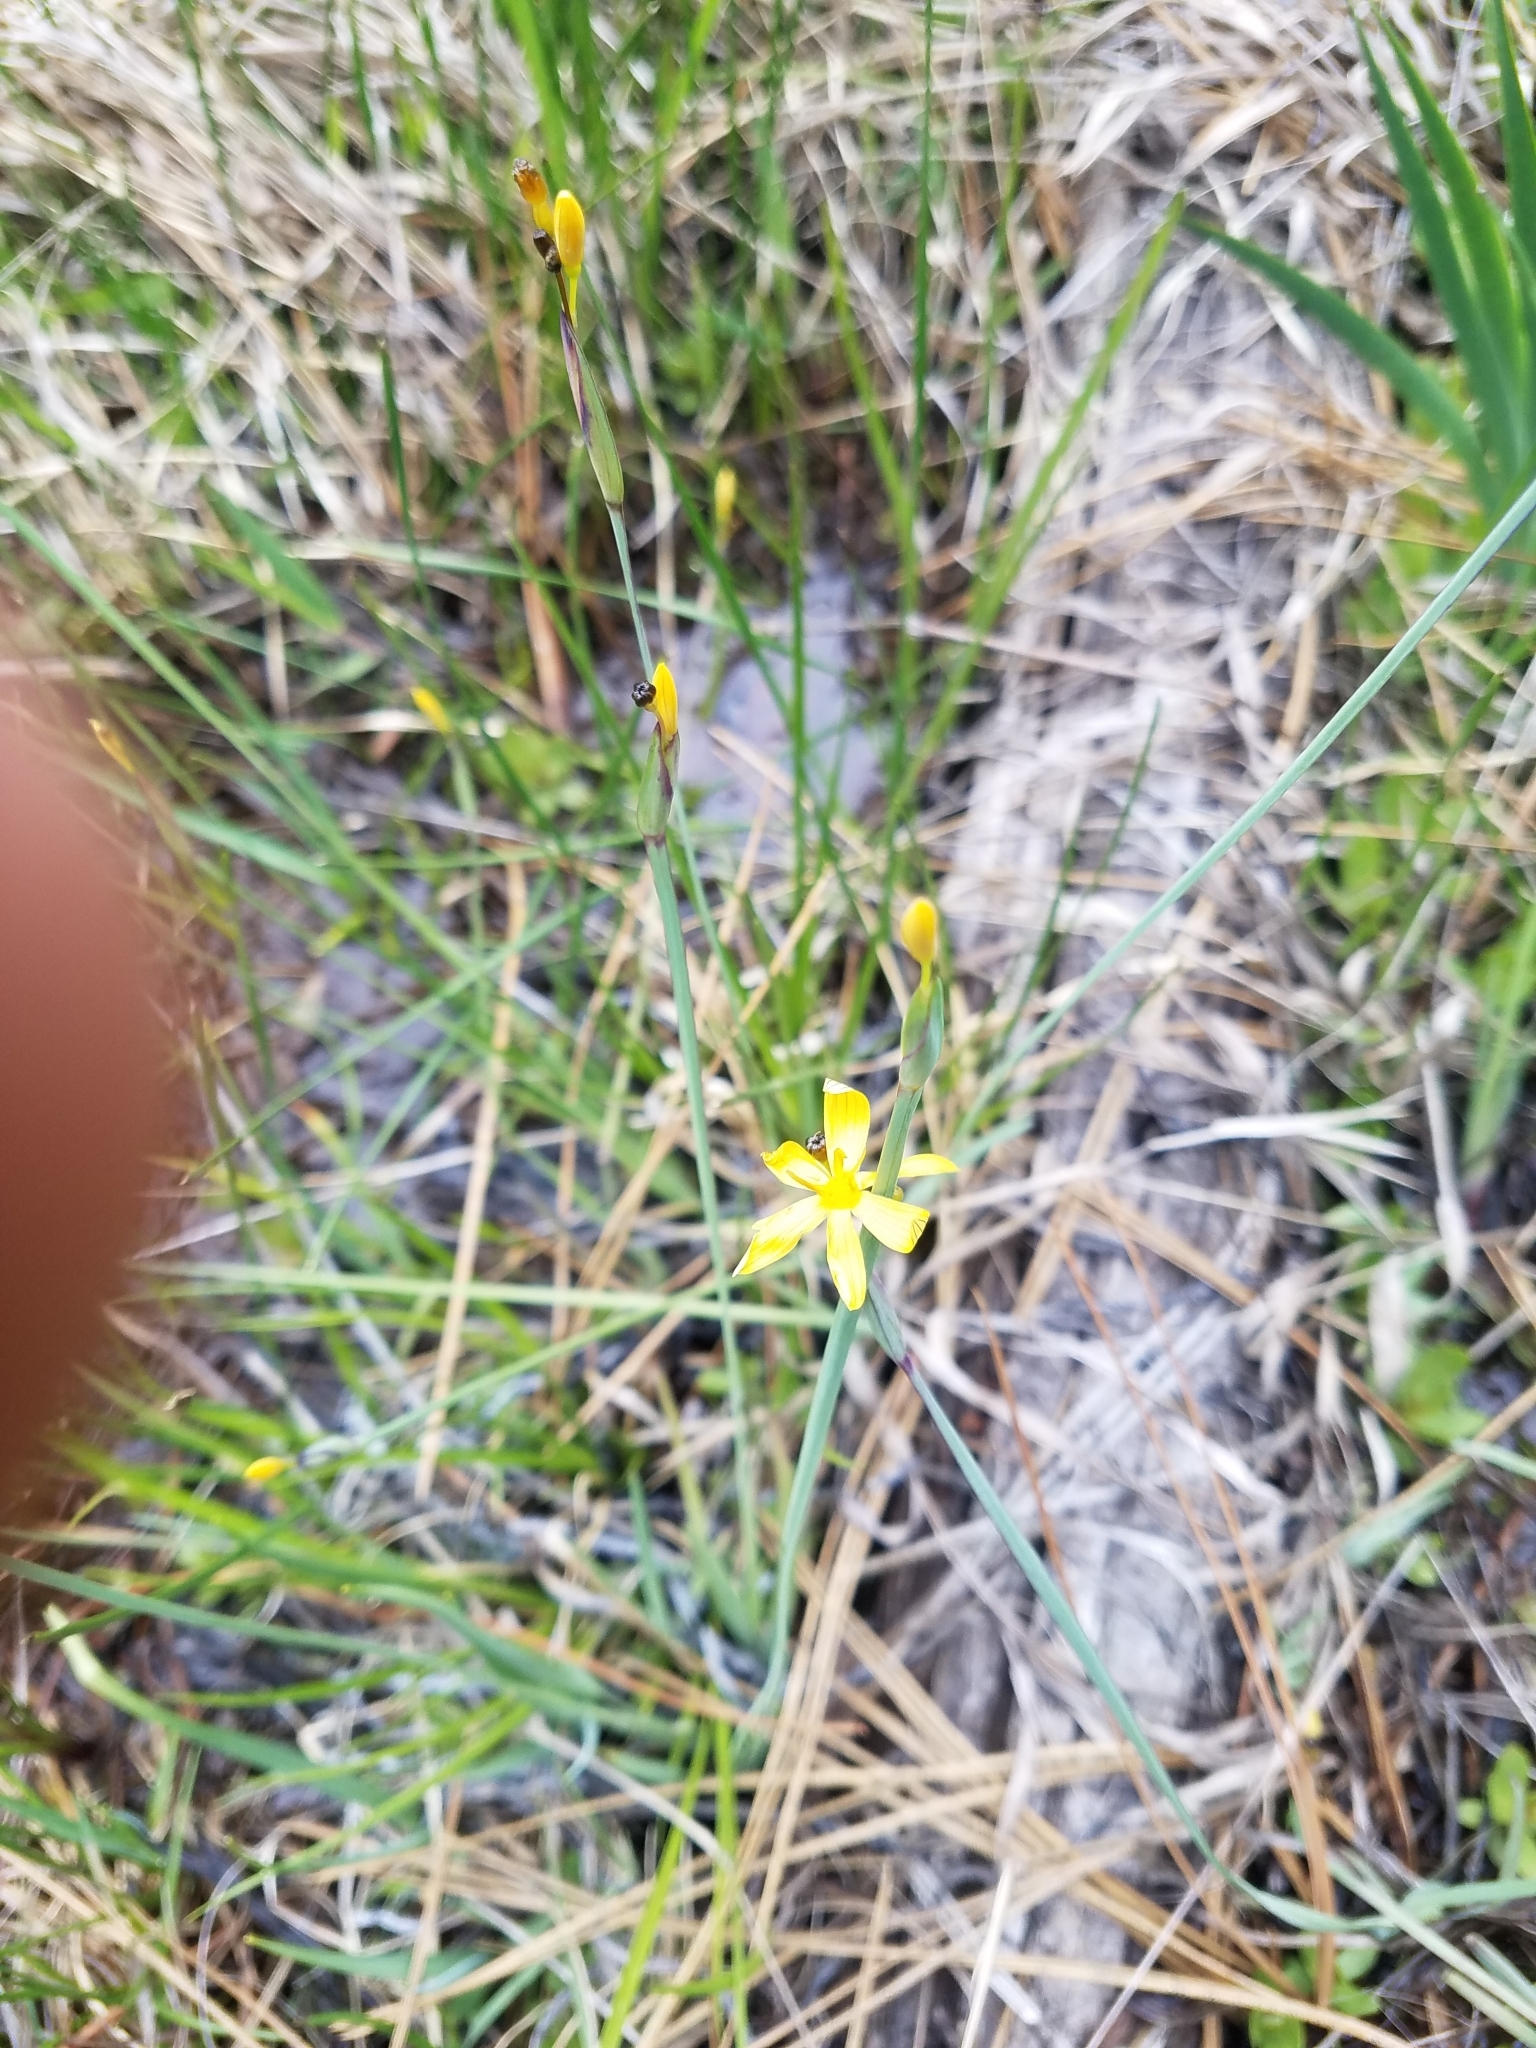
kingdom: Plantae
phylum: Tracheophyta
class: Liliopsida
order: Asparagales
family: Iridaceae
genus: Sisyrinchium
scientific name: Sisyrinchium elmeri
